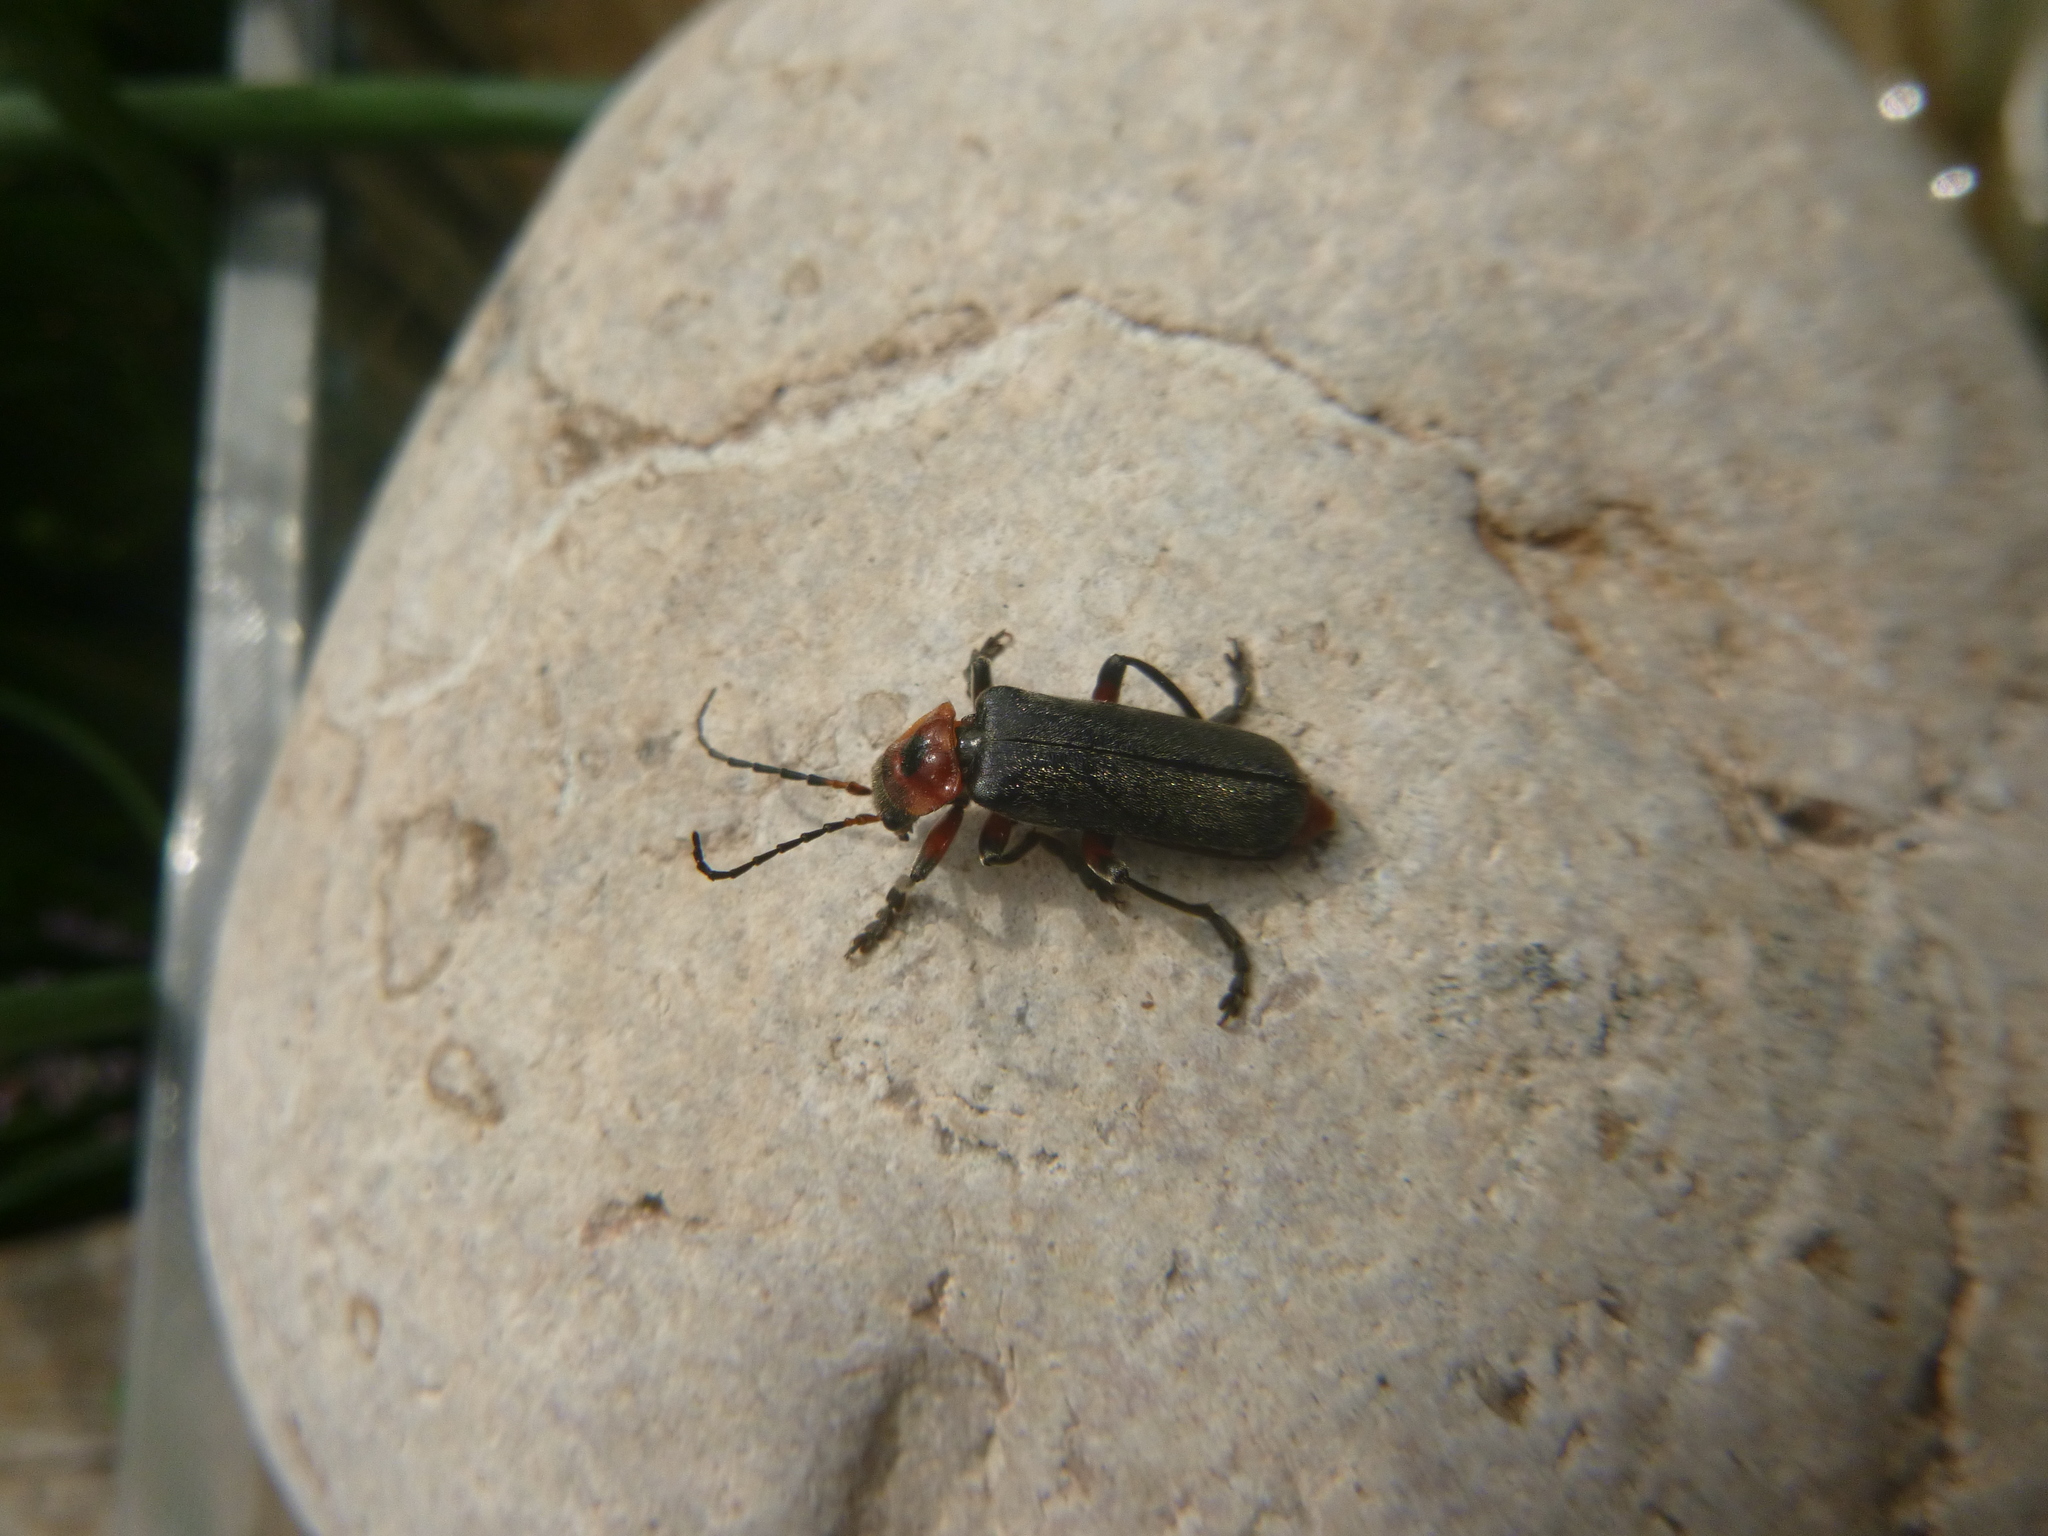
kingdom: Animalia
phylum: Arthropoda
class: Insecta
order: Coleoptera
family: Cantharidae
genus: Cantharis
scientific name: Cantharis rustica
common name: Soldier beetle
